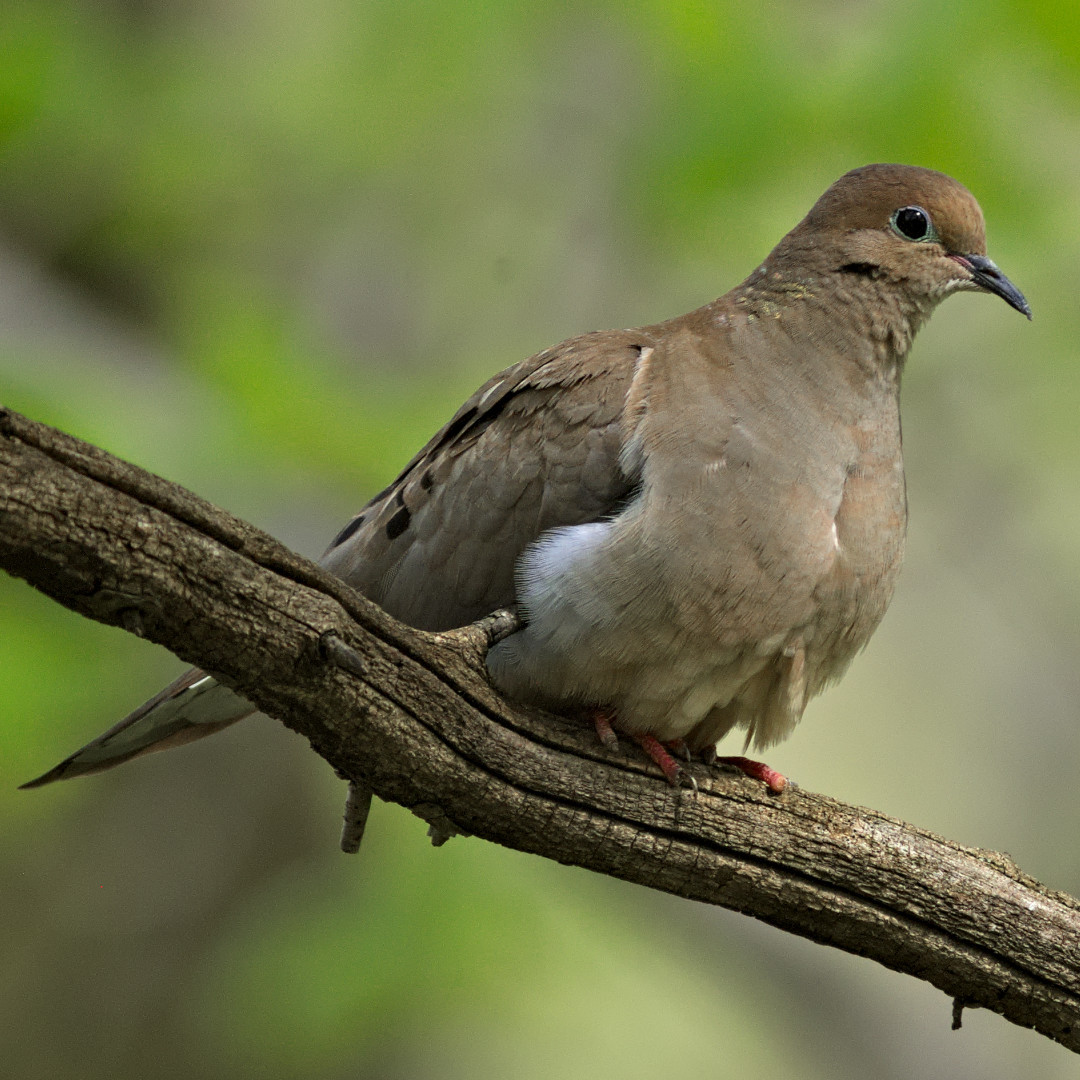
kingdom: Animalia
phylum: Chordata
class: Aves
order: Columbiformes
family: Columbidae
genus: Zenaida
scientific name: Zenaida macroura
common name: Mourning dove
